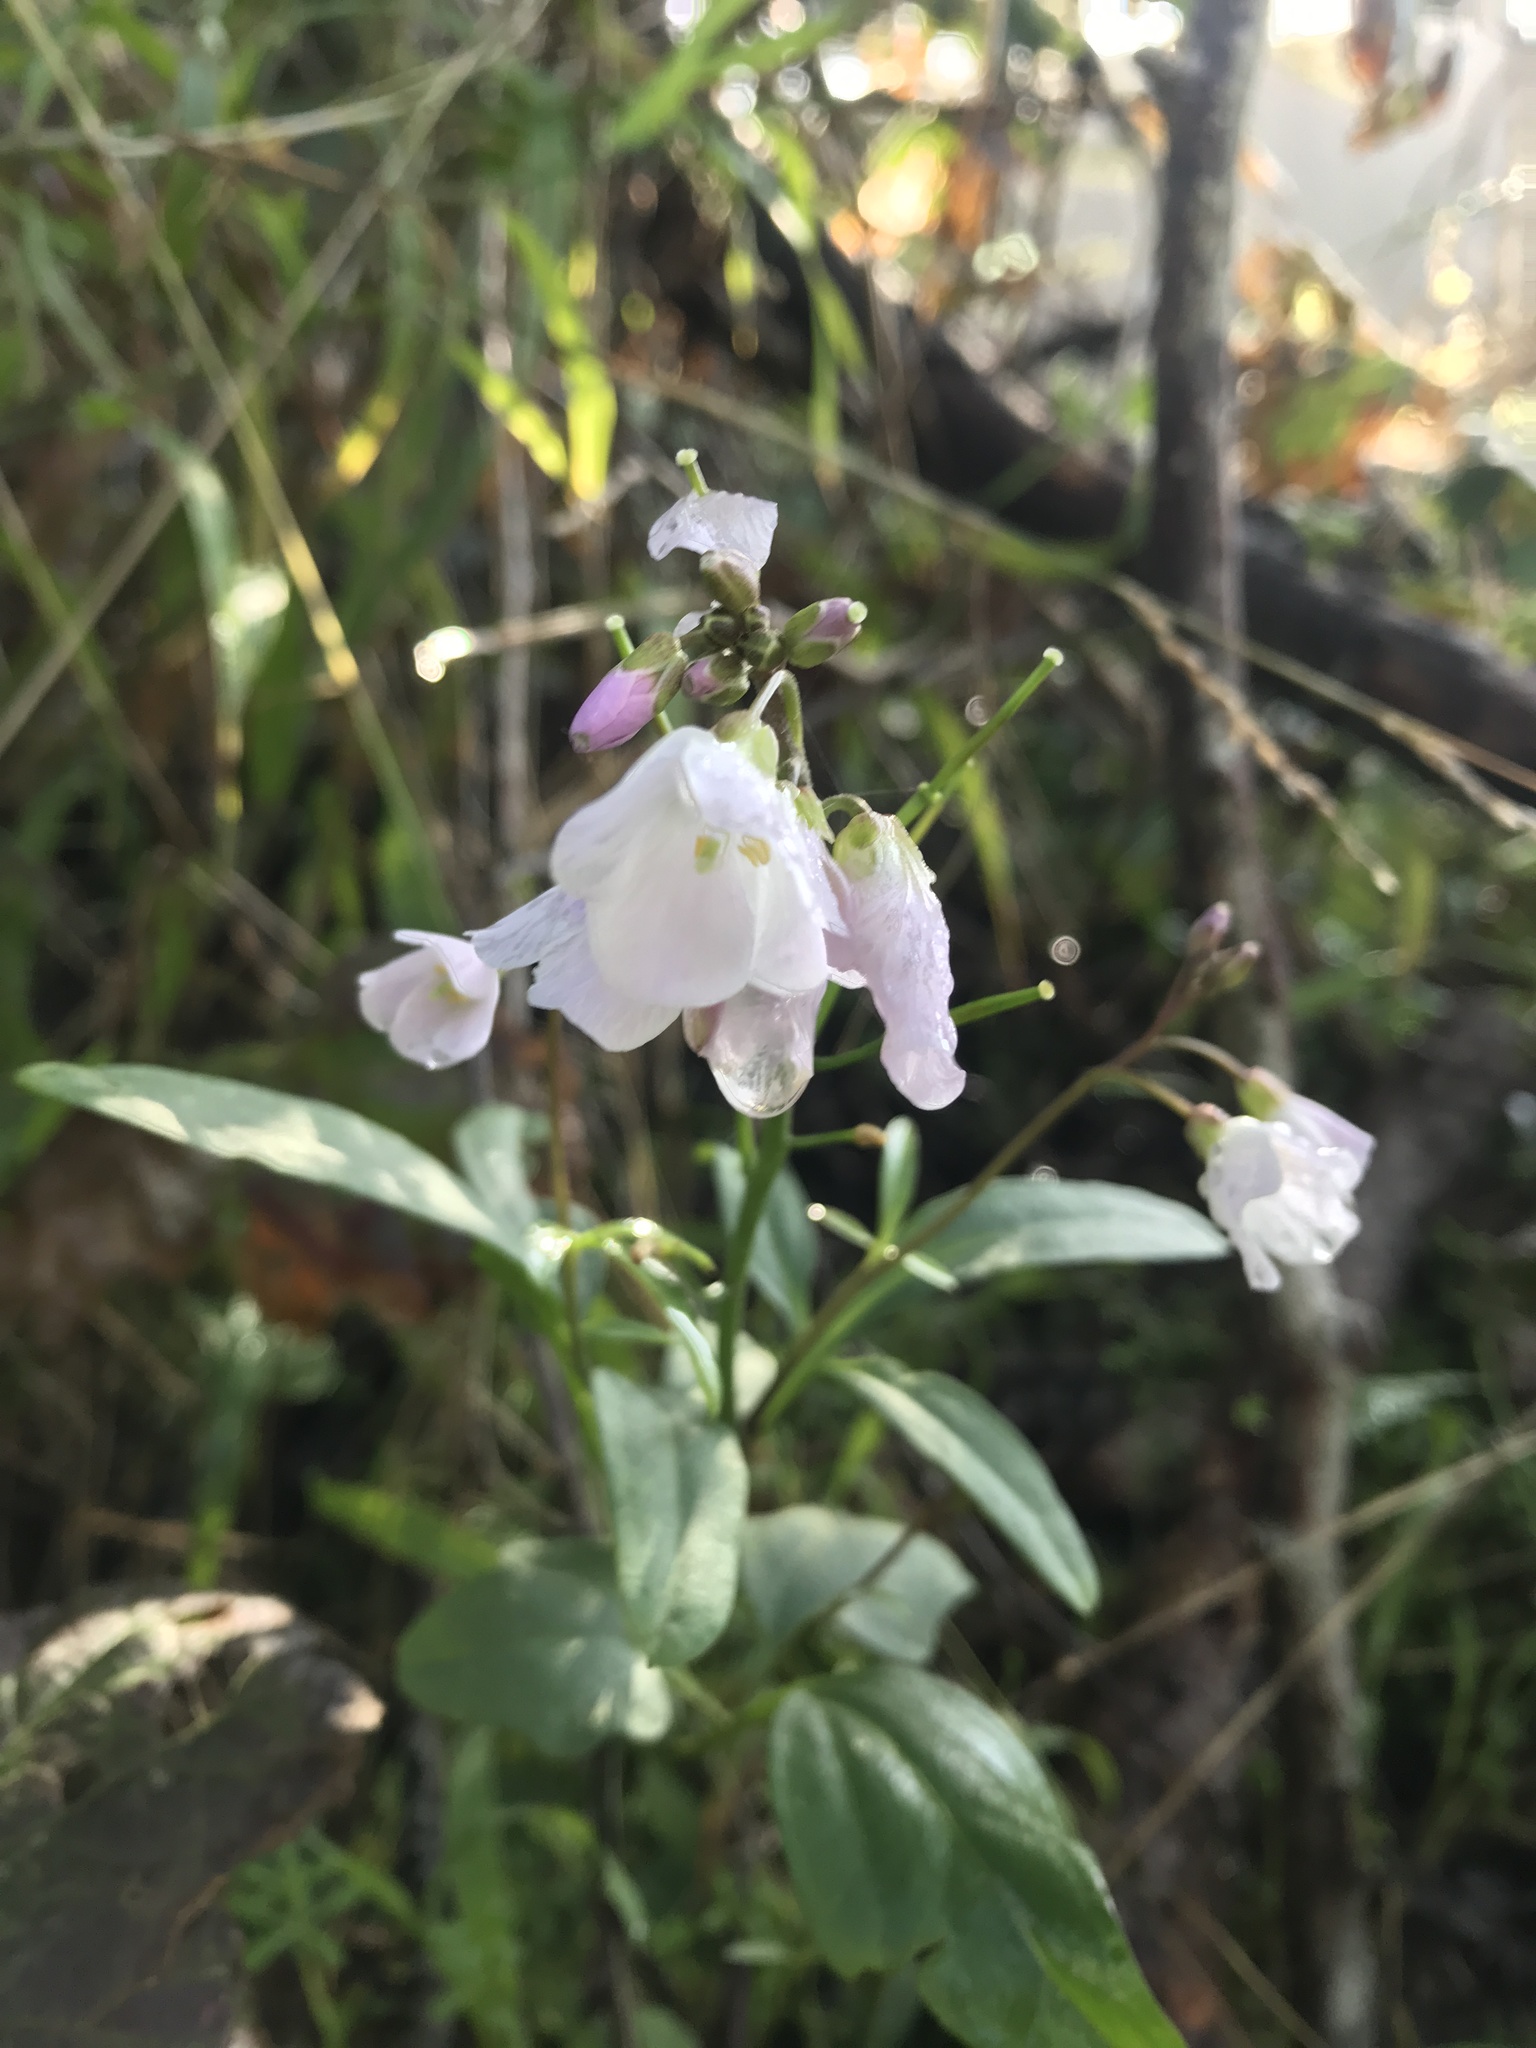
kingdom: Plantae
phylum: Tracheophyta
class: Magnoliopsida
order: Brassicales
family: Brassicaceae
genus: Cardamine
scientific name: Cardamine californica
